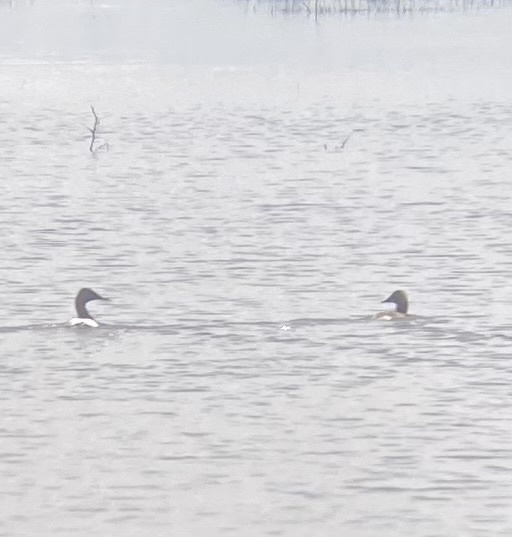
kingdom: Animalia
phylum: Chordata
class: Aves
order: Anseriformes
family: Anatidae
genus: Aythya
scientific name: Aythya valisineria
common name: Canvasback
